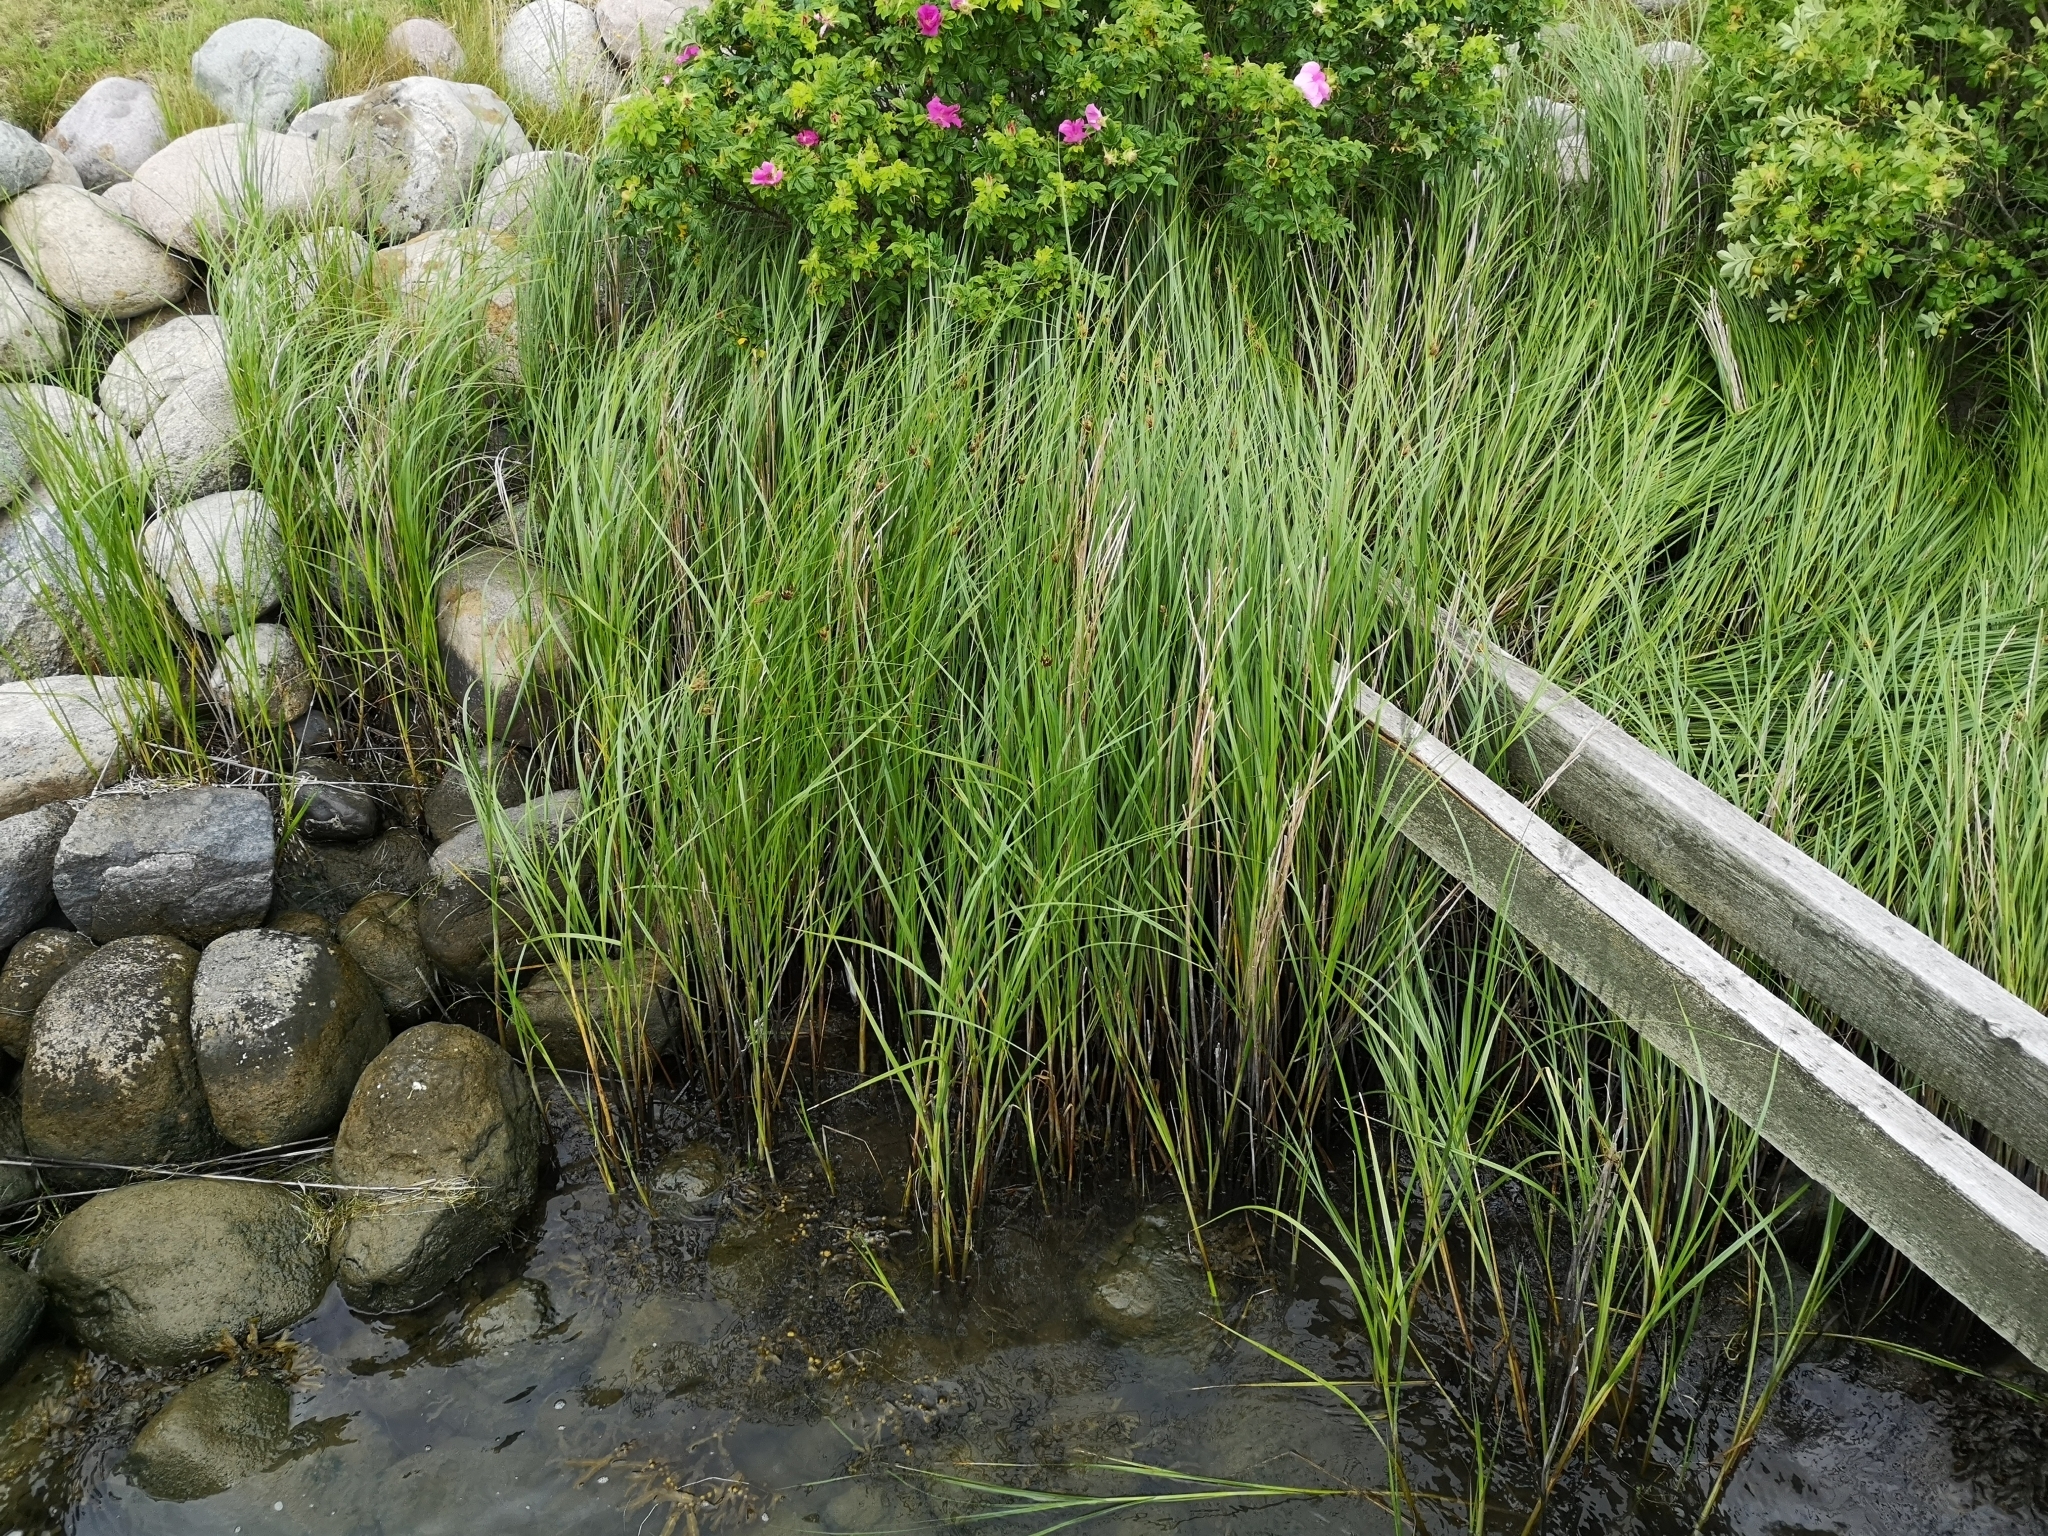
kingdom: Plantae
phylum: Tracheophyta
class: Liliopsida
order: Poales
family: Cyperaceae
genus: Bolboschoenus
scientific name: Bolboschoenus maritimus
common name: Sea club-rush
